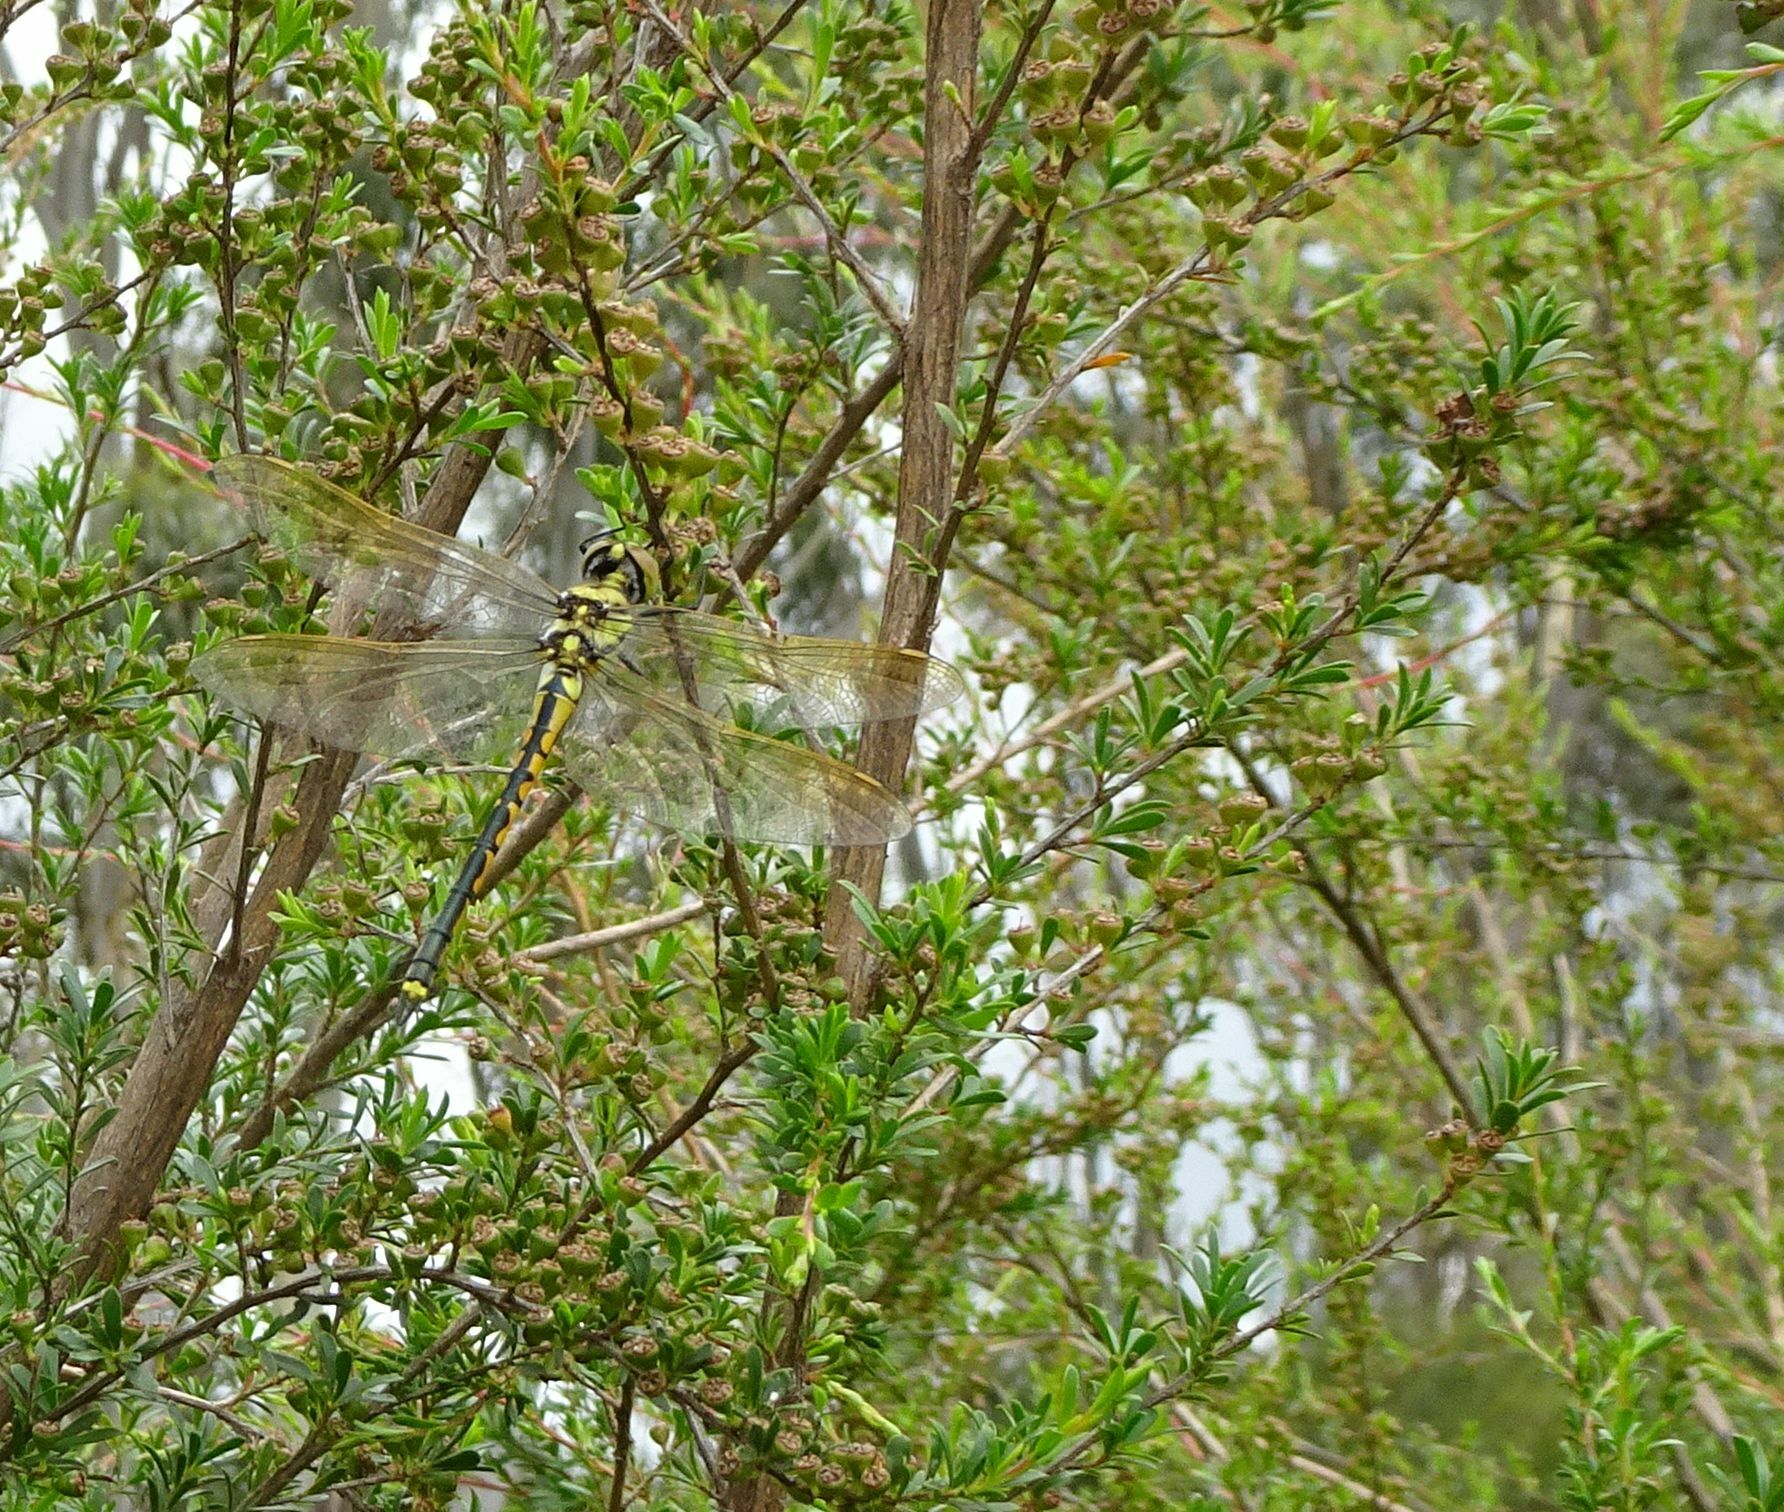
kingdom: Animalia
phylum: Arthropoda
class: Insecta
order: Odonata
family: Corduliidae
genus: Hemicordulia
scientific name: Hemicordulia tau
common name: Tau emerald
